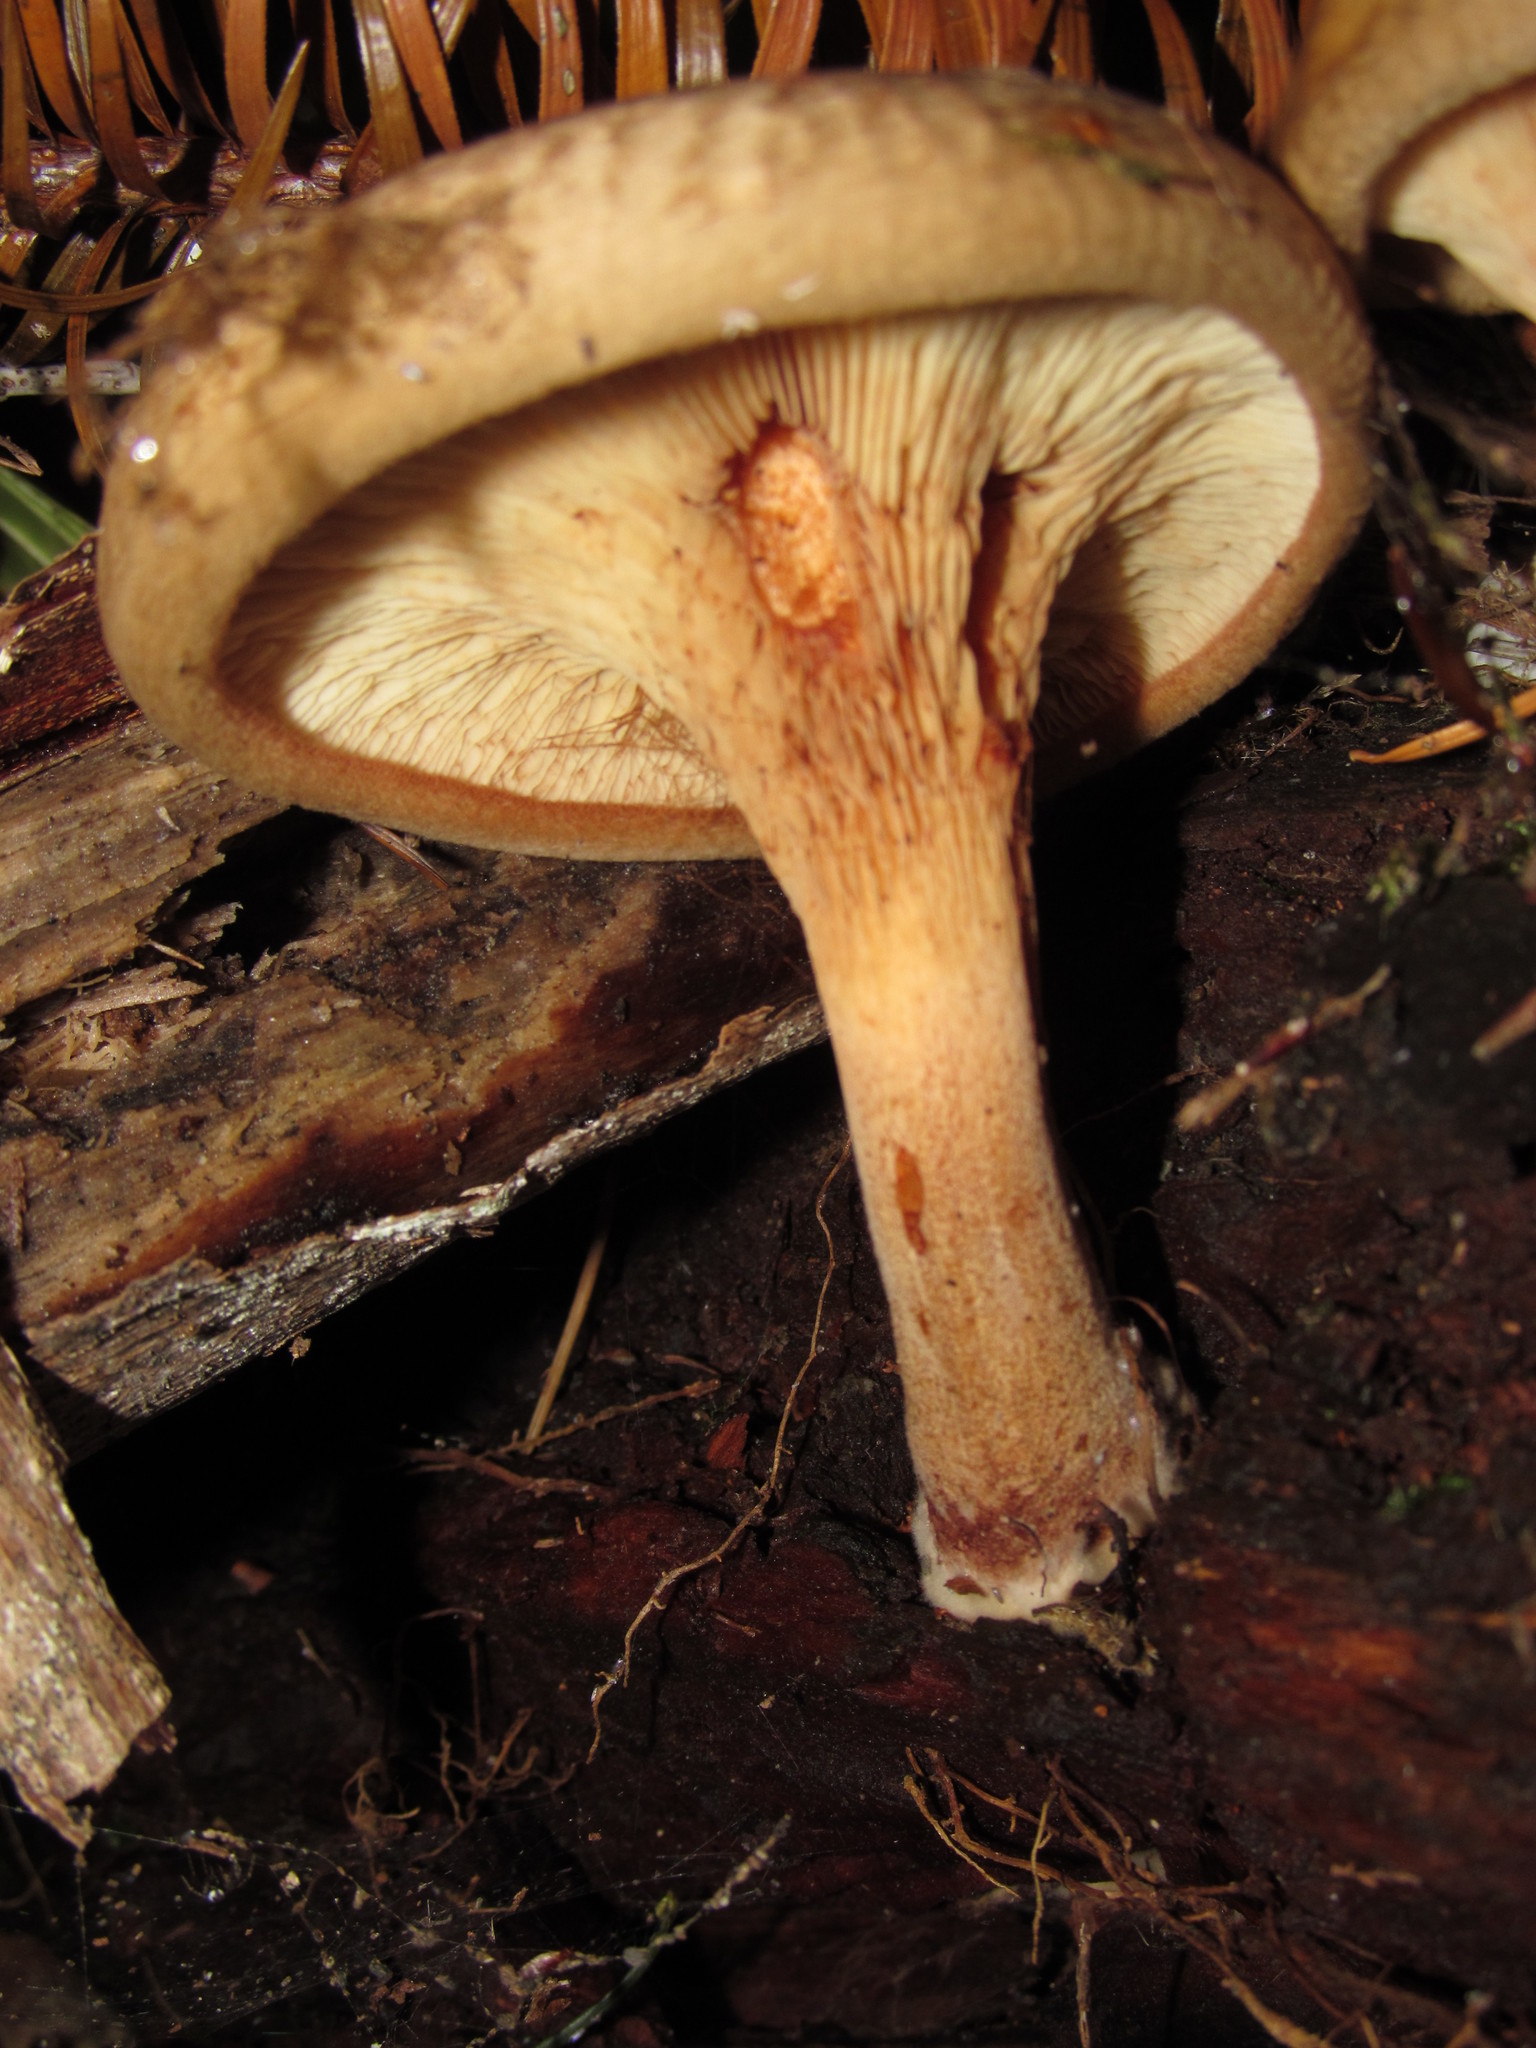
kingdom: Fungi
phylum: Basidiomycota
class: Agaricomycetes
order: Boletales
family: Paxillaceae
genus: Paxillus
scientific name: Paxillus involutus
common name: Brown roll rim
